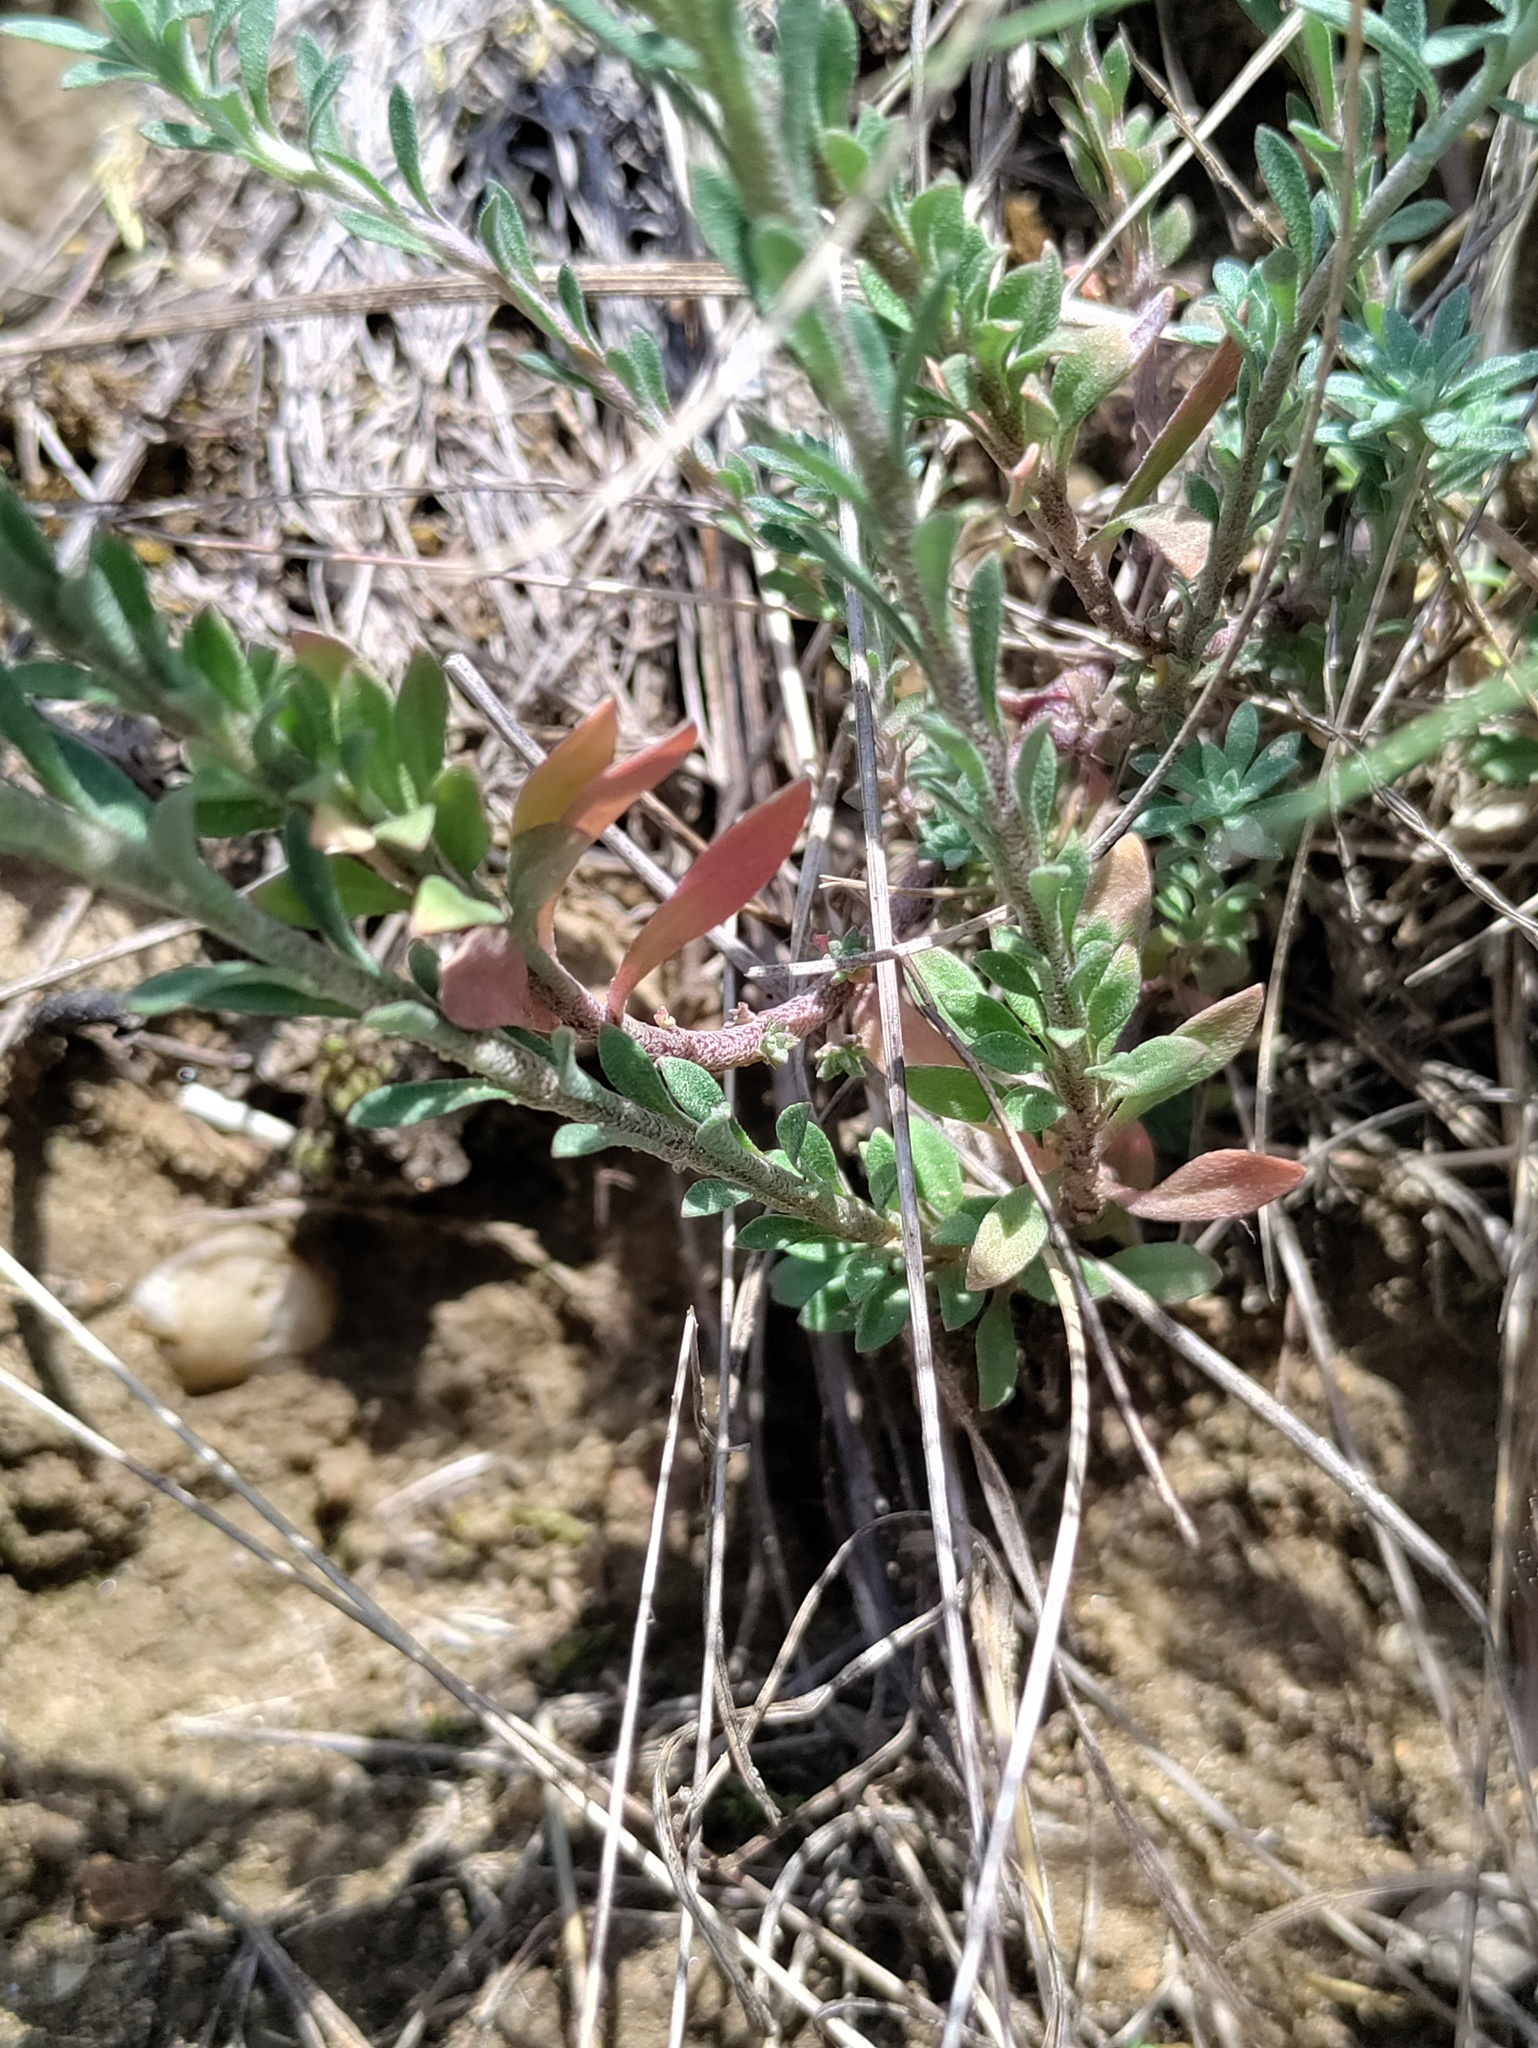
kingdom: Plantae
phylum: Tracheophyta
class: Magnoliopsida
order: Brassicales
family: Brassicaceae
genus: Alyssum
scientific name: Alyssum alyssoides
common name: Small alison
